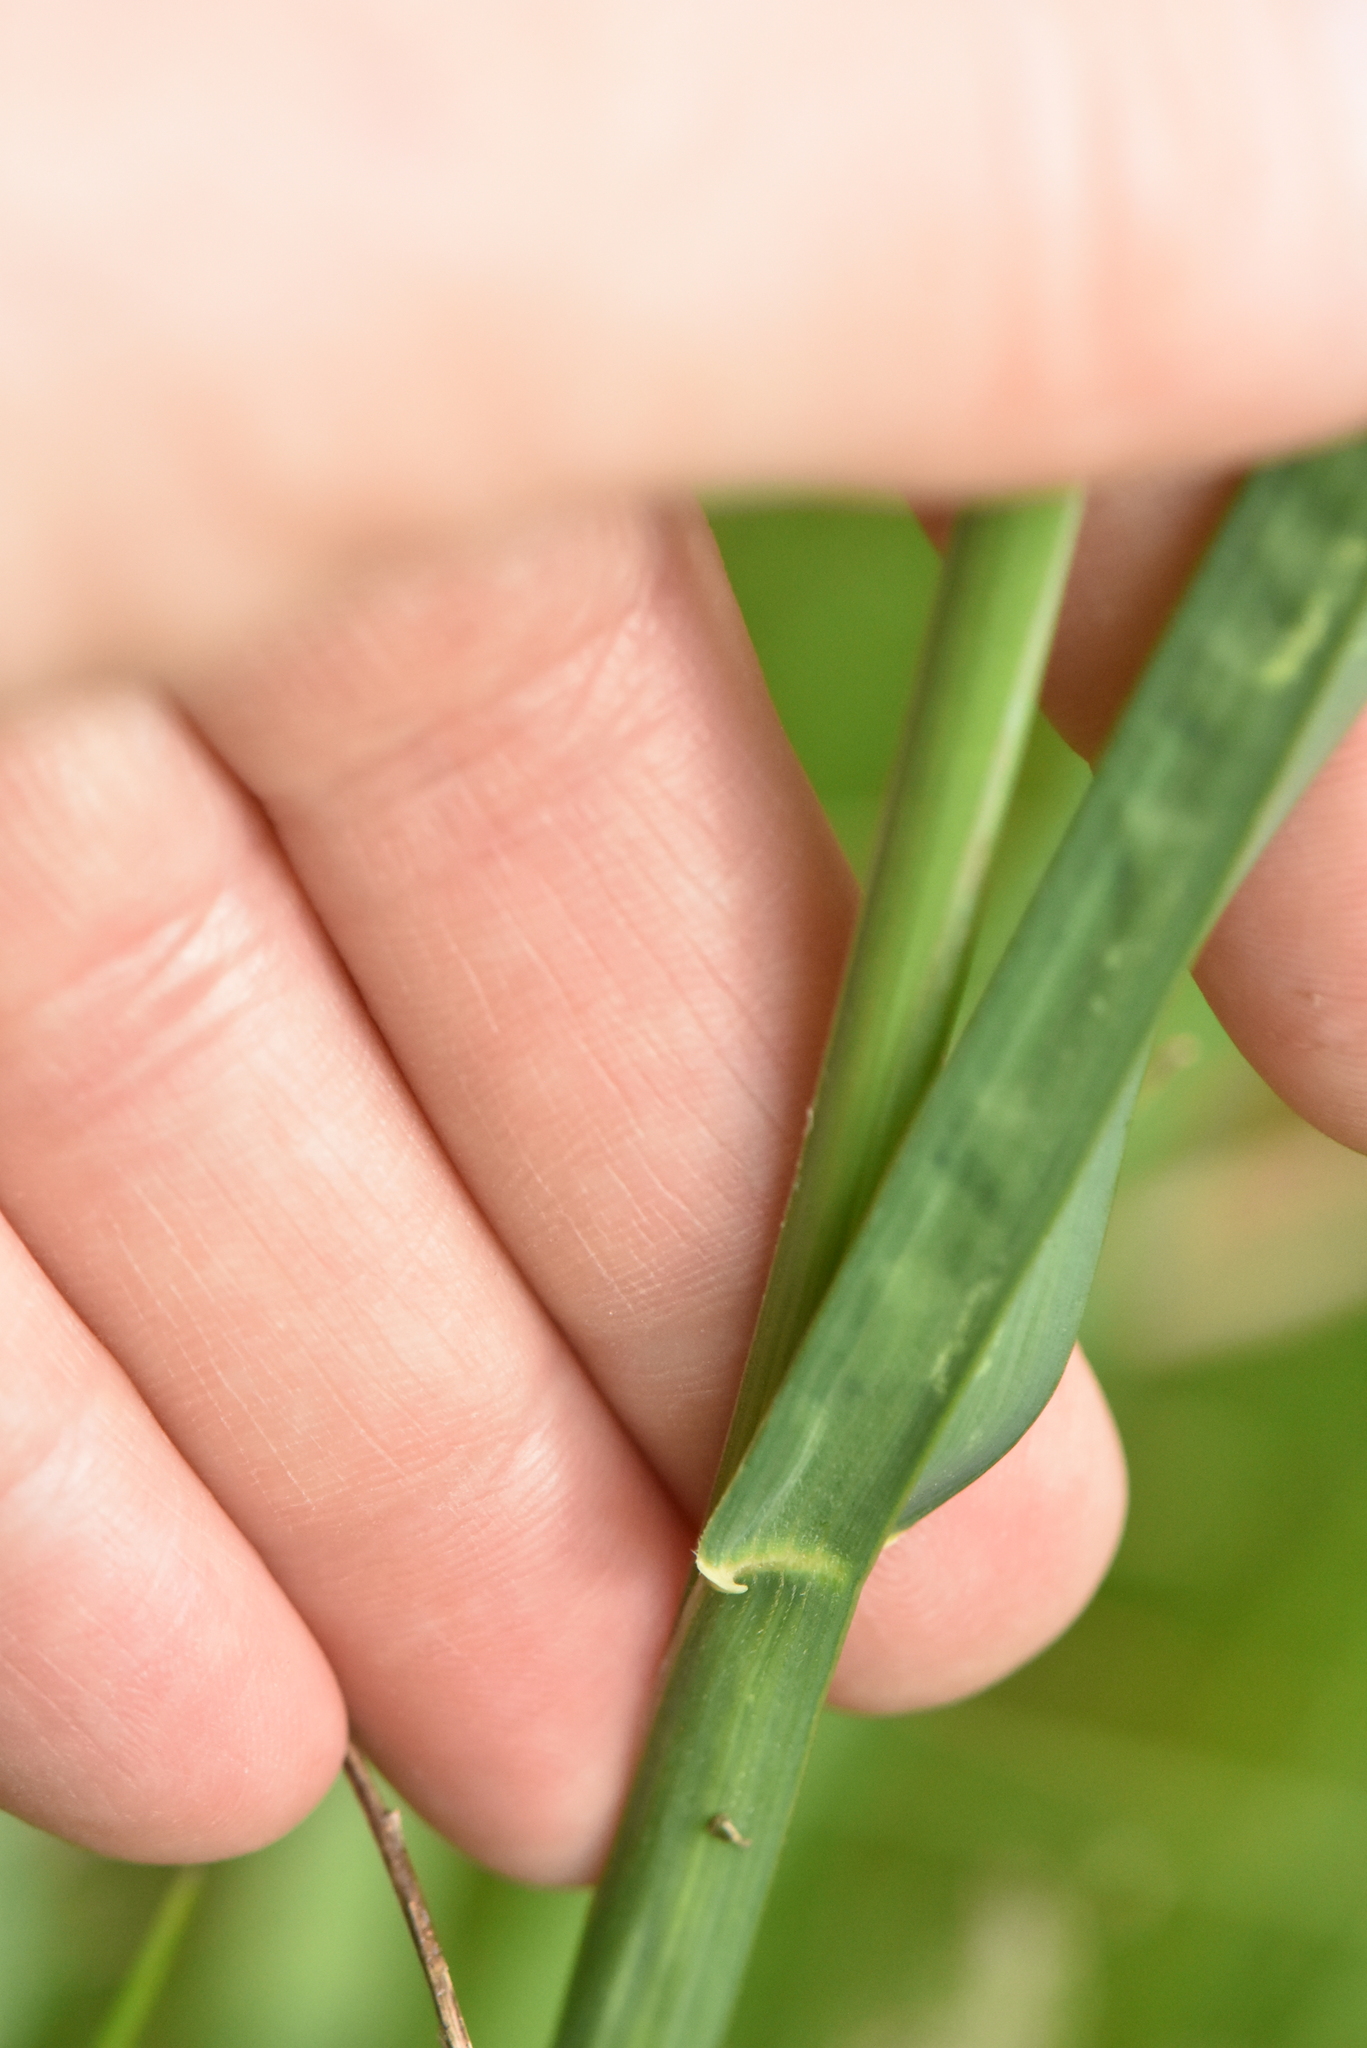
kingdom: Plantae
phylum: Tracheophyta
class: Liliopsida
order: Poales
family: Poaceae
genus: Dactylis
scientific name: Dactylis glomerata
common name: Orchardgrass
